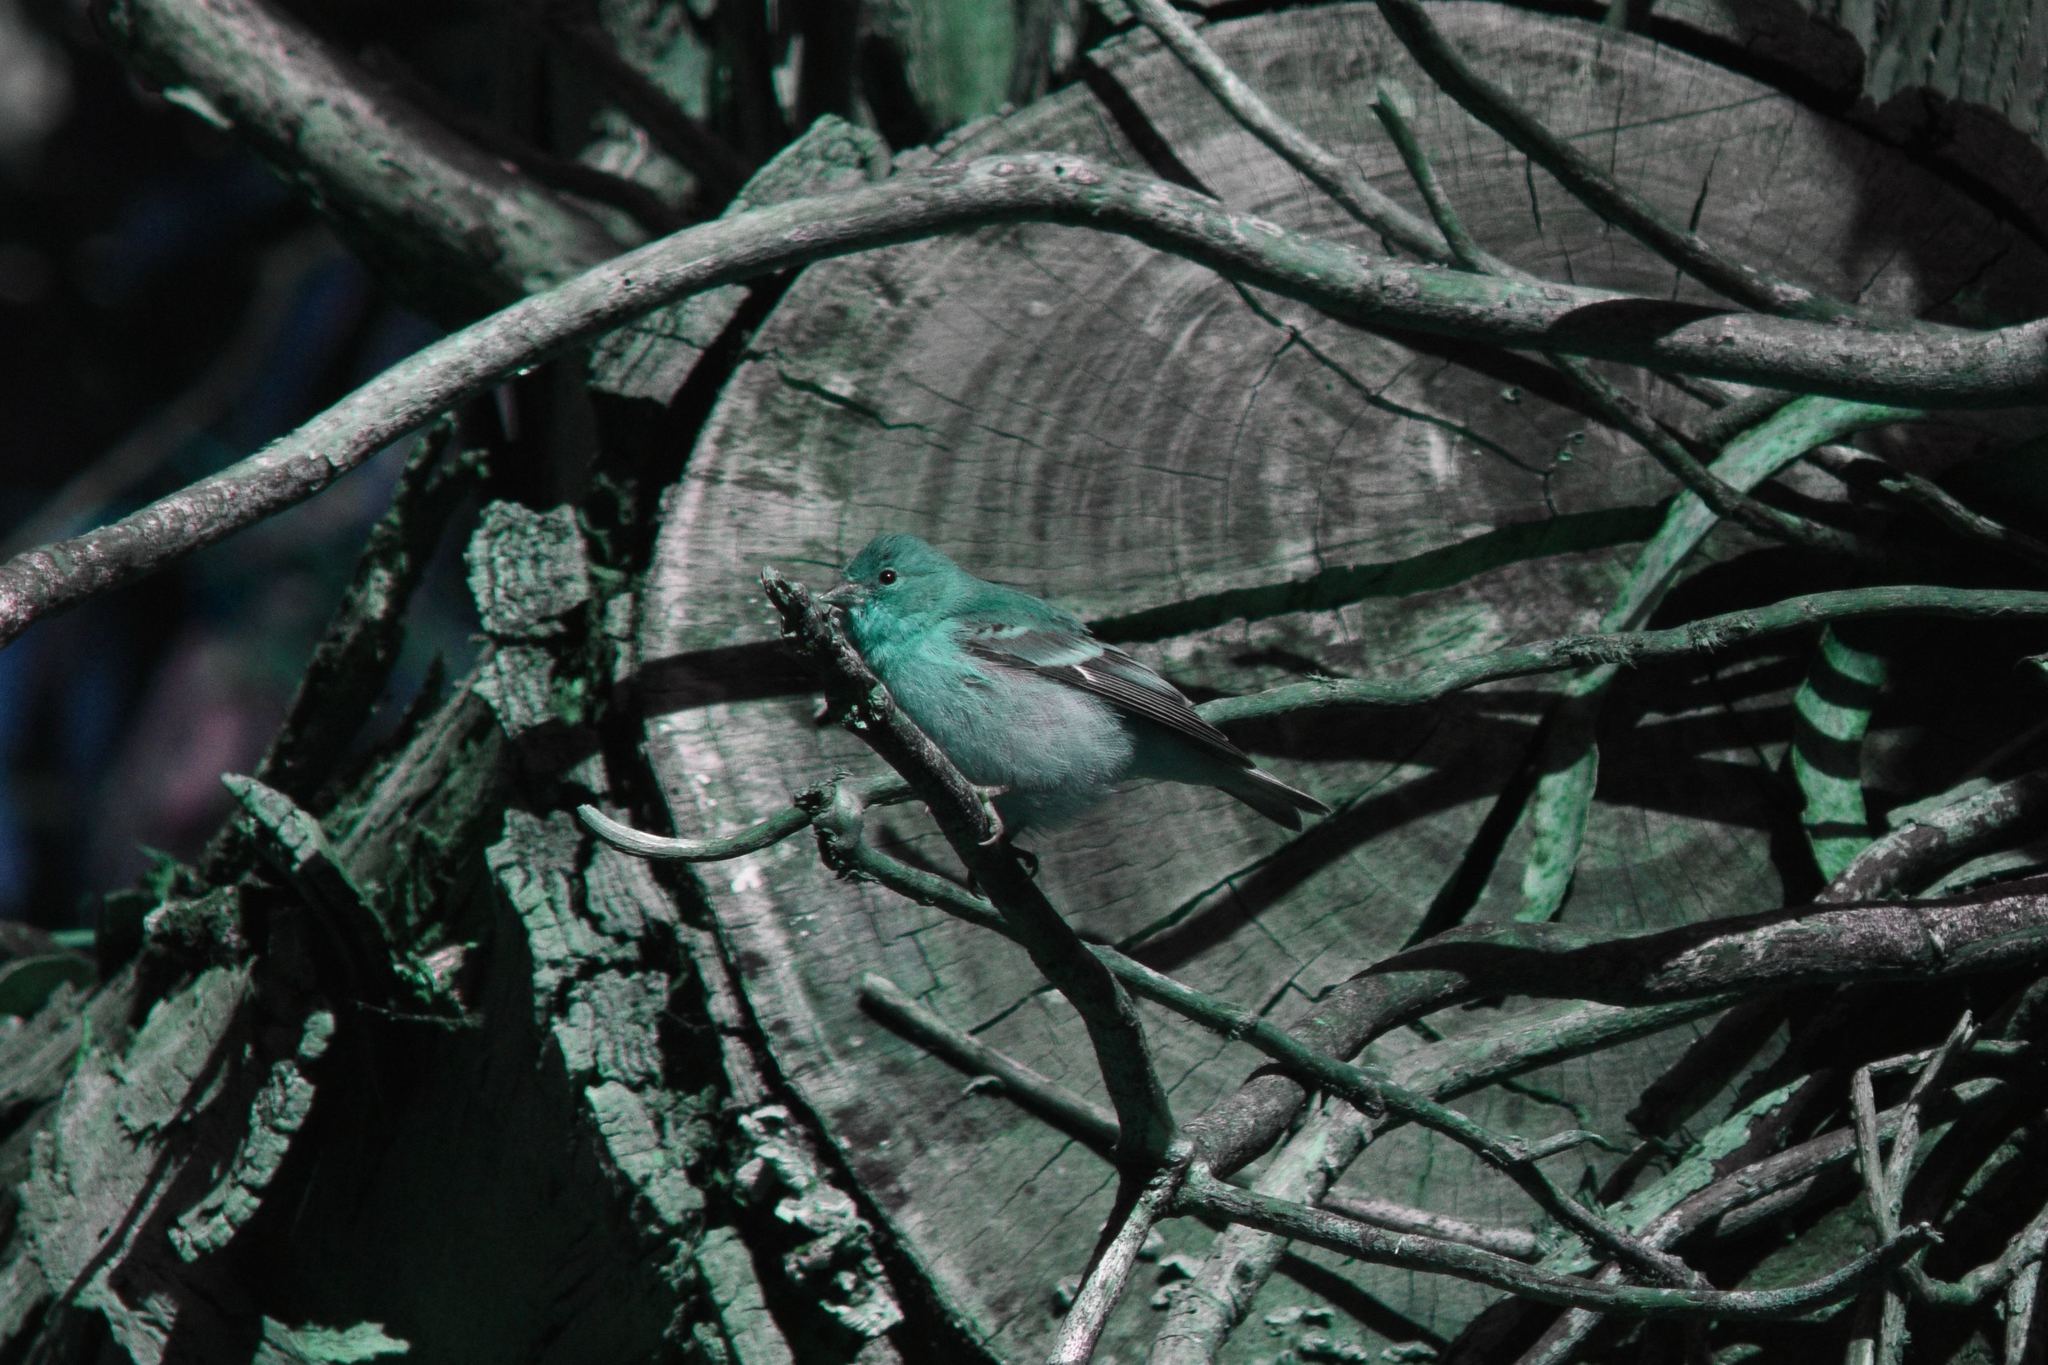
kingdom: Animalia
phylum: Chordata
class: Aves
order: Passeriformes
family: Fringillidae
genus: Spinus
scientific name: Spinus psaltria
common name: Lesser goldfinch
